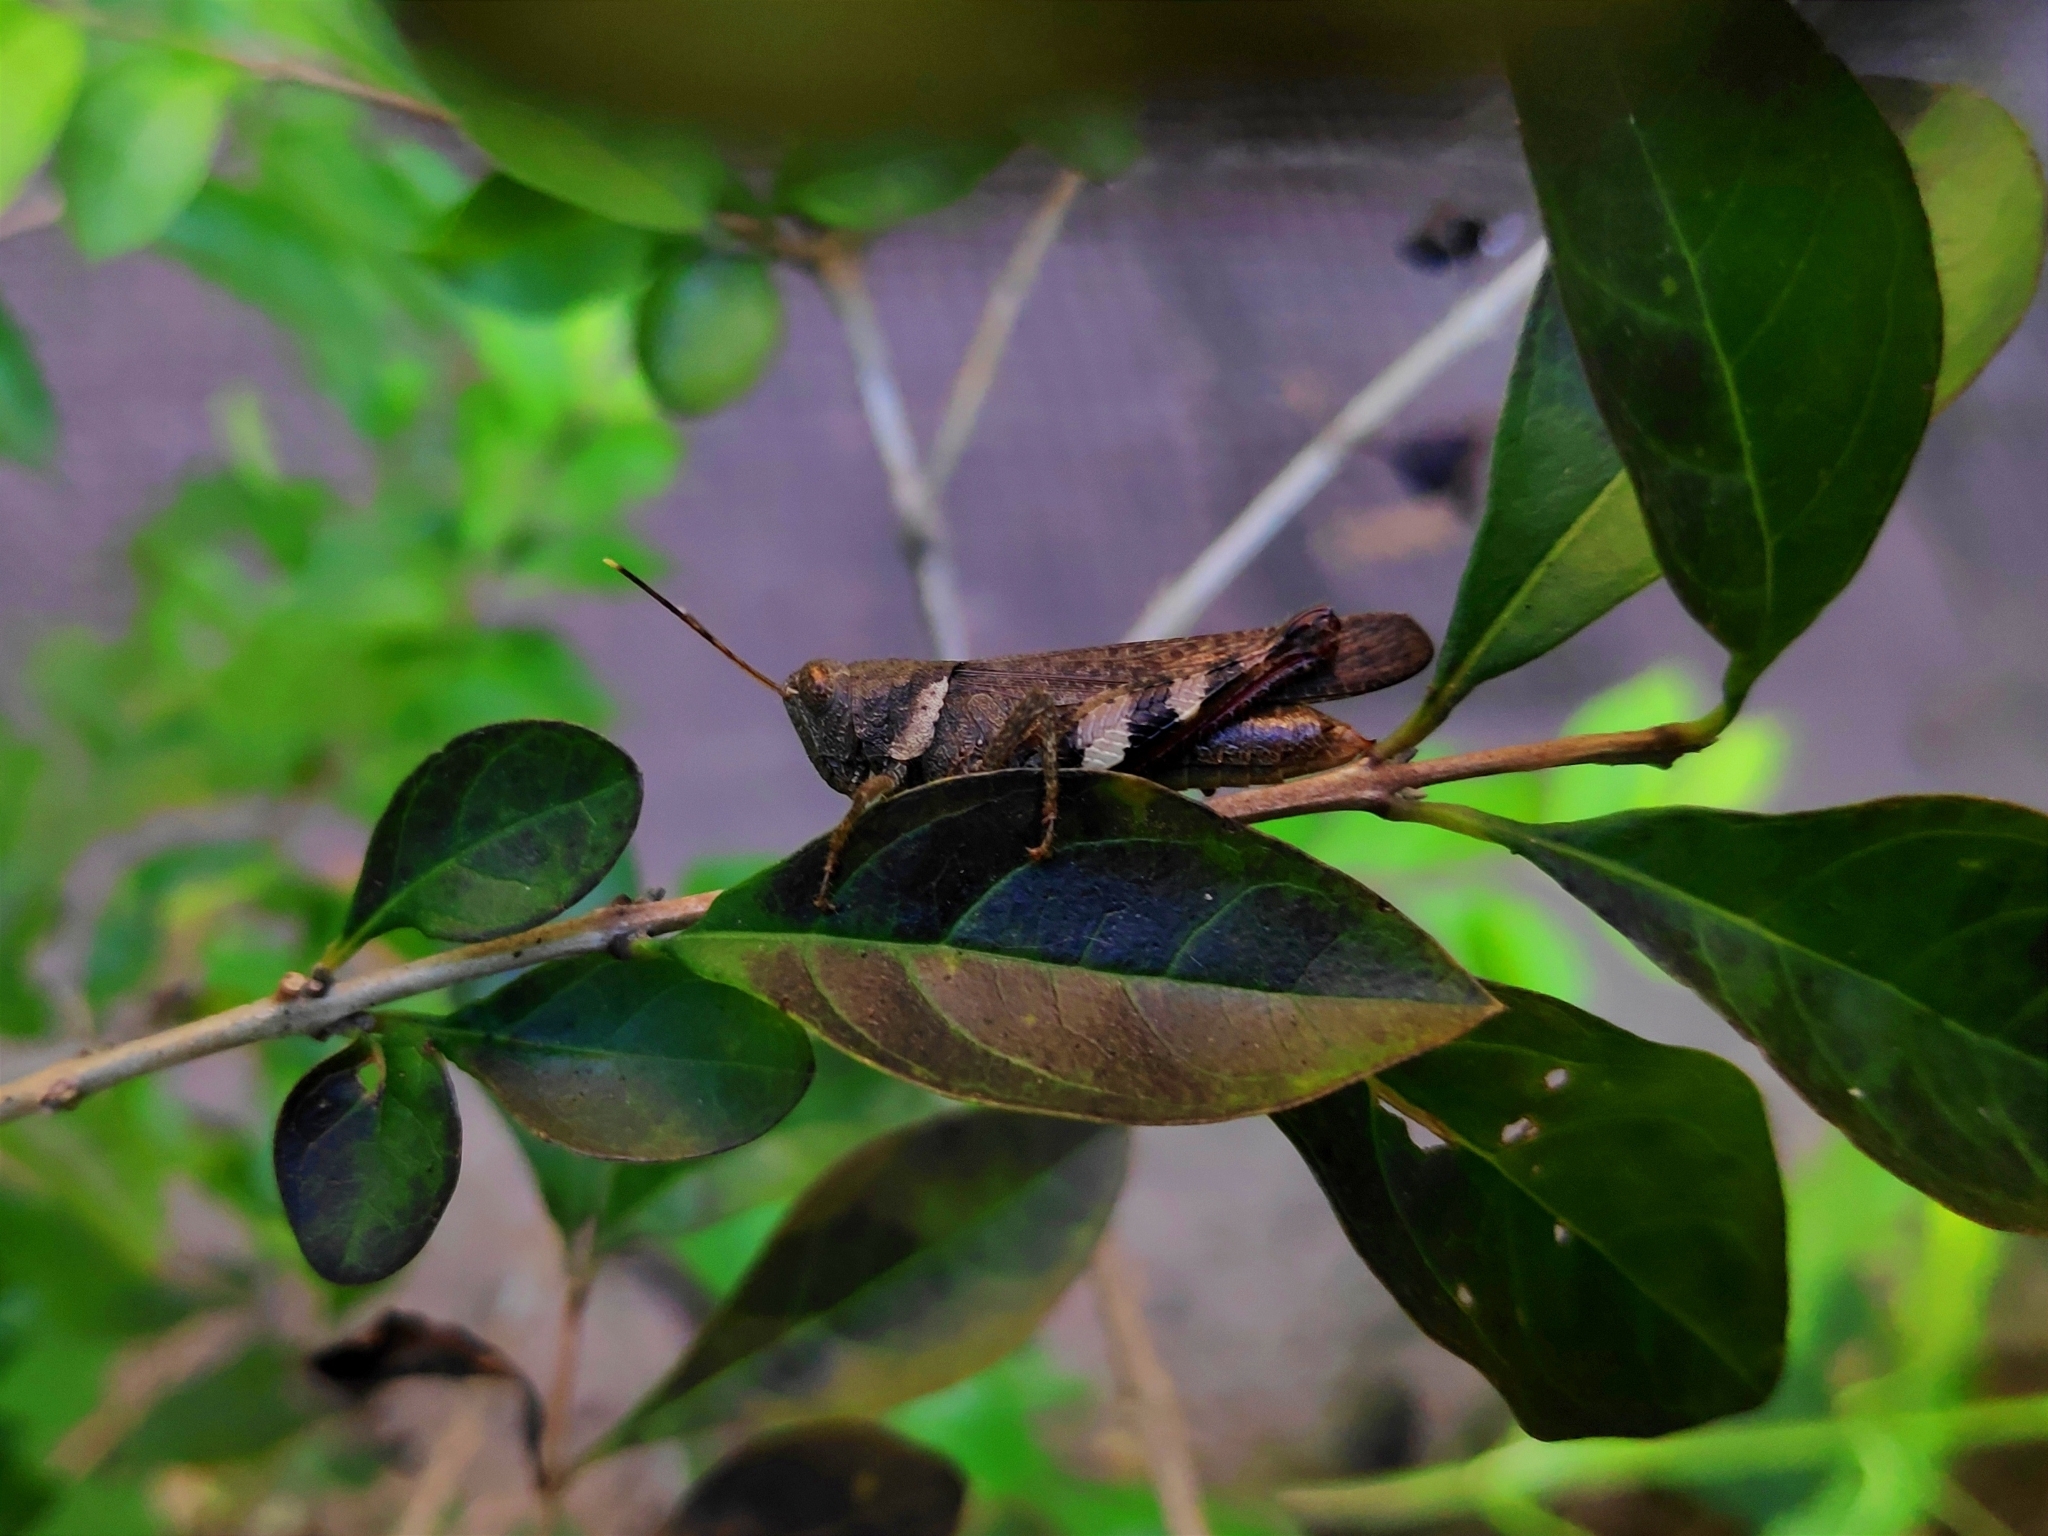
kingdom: Animalia
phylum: Arthropoda
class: Insecta
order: Orthoptera
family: Acrididae
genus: Apalacris
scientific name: Apalacris varicornis
